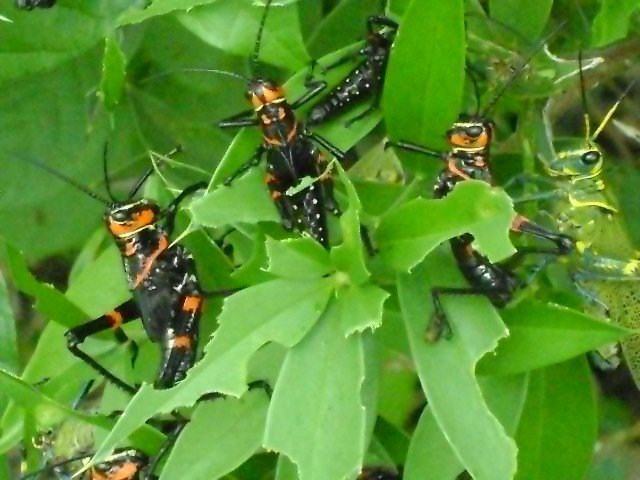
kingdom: Animalia
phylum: Arthropoda
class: Insecta
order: Orthoptera
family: Romaleidae
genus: Chromacris
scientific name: Chromacris colorata
